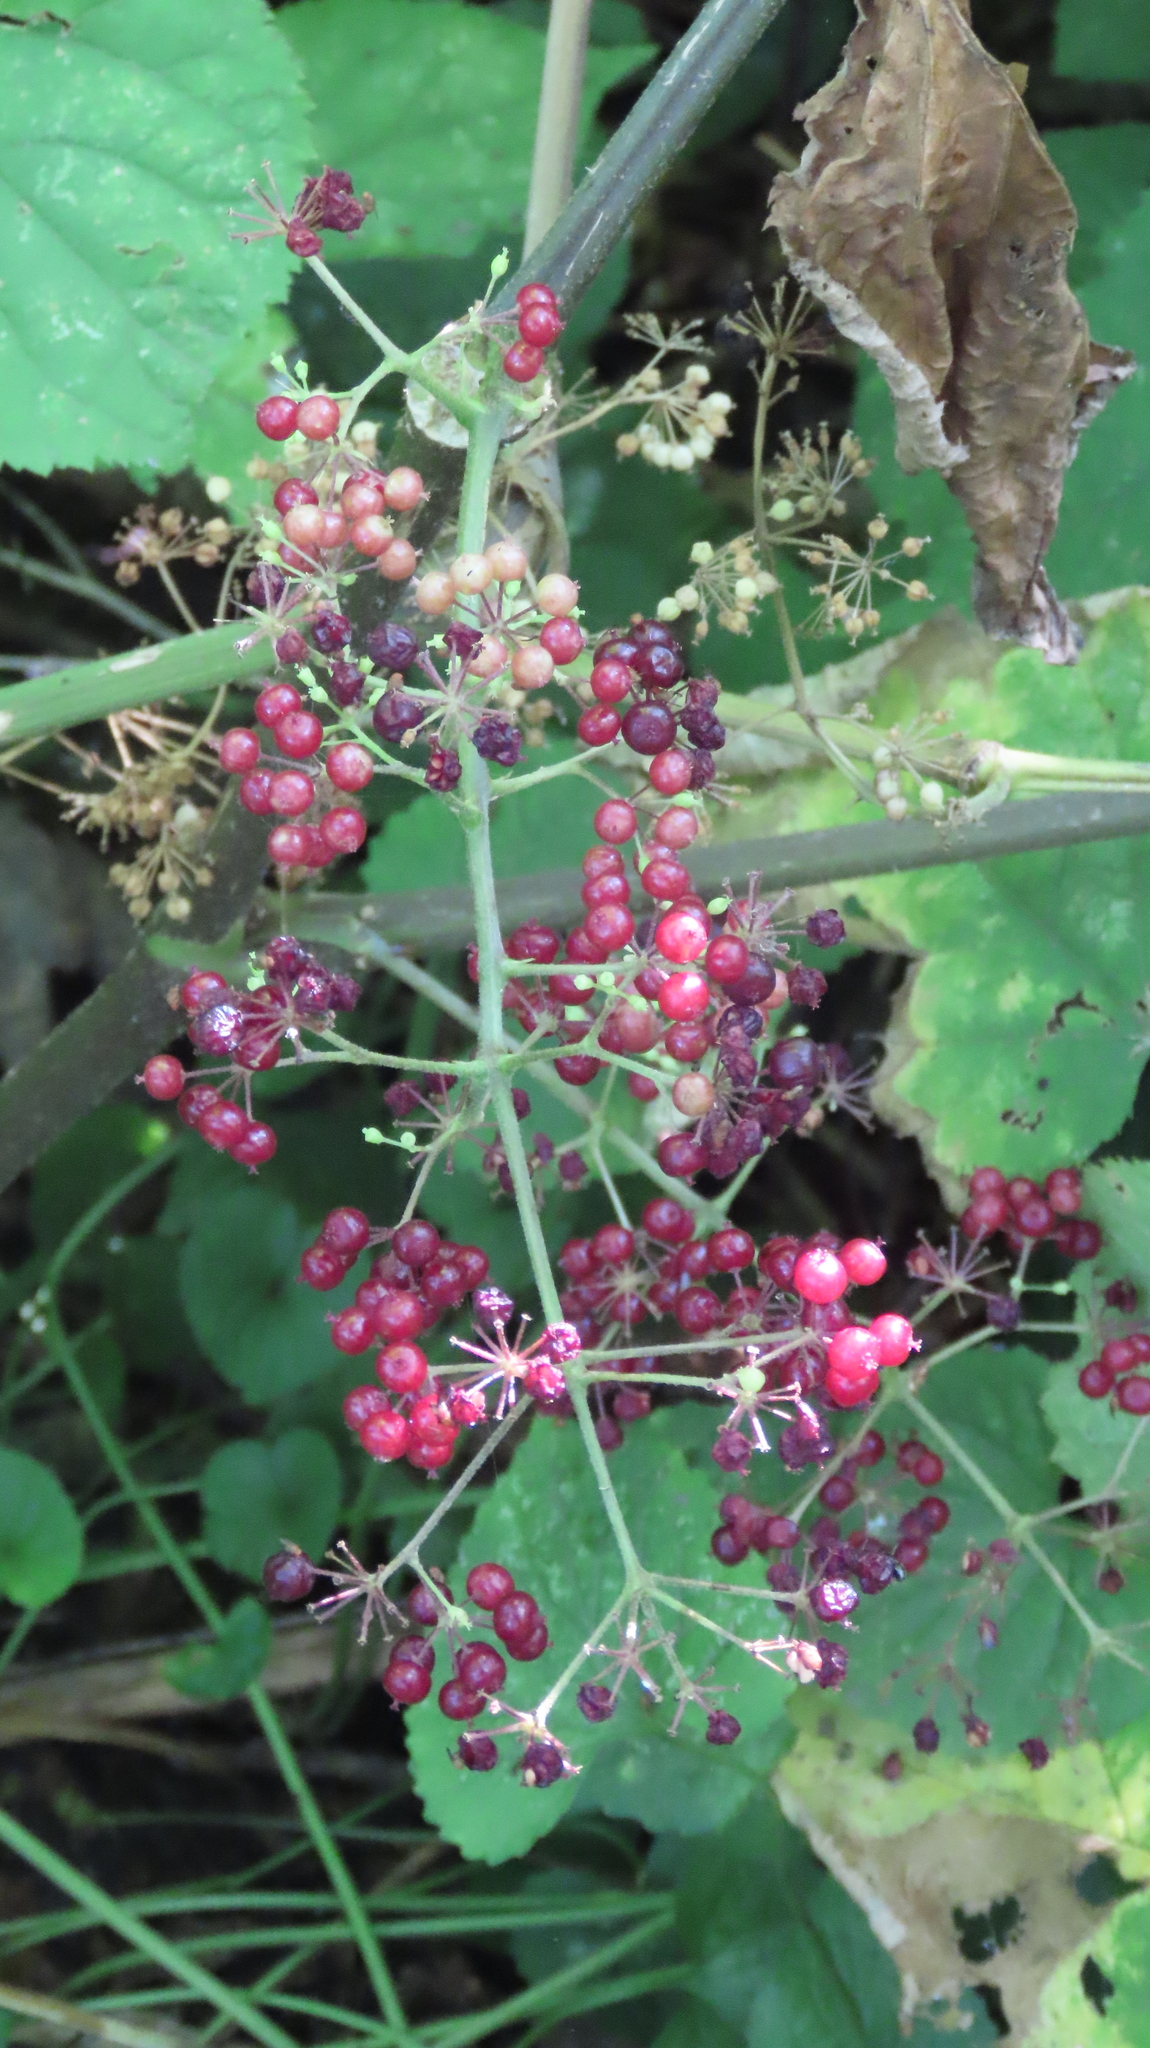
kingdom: Plantae
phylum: Tracheophyta
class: Magnoliopsida
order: Apiales
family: Araliaceae
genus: Aralia
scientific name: Aralia racemosa
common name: American-spikenard
